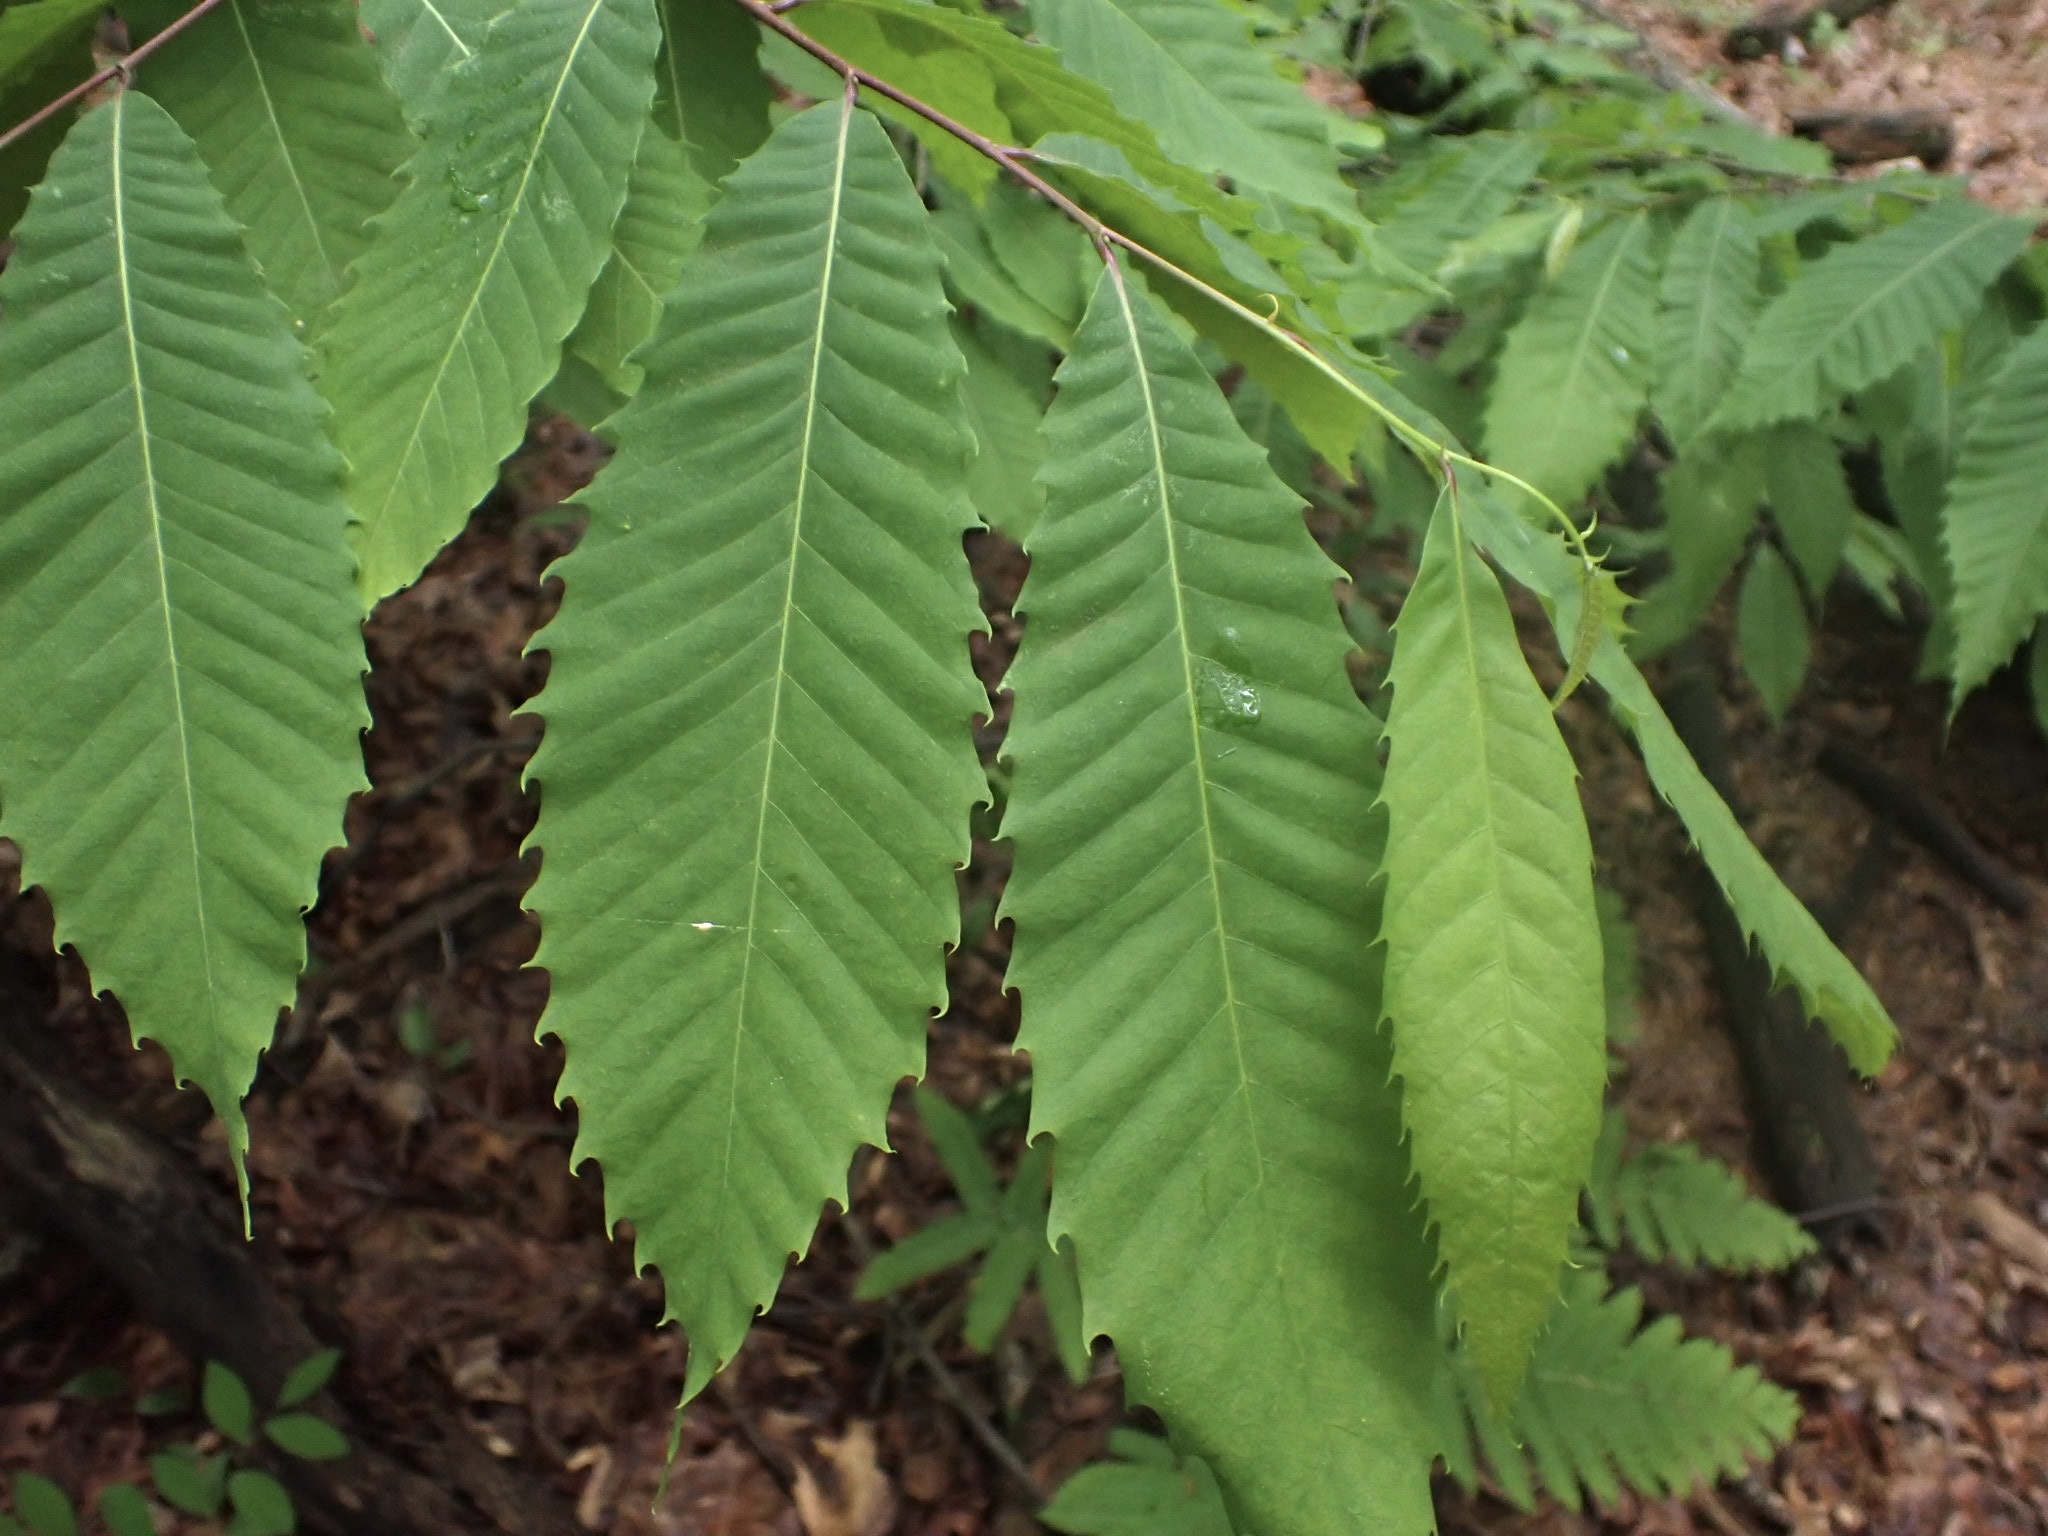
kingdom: Plantae
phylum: Tracheophyta
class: Magnoliopsida
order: Fagales
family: Fagaceae
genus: Castanea
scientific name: Castanea dentata
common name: American chestnut
